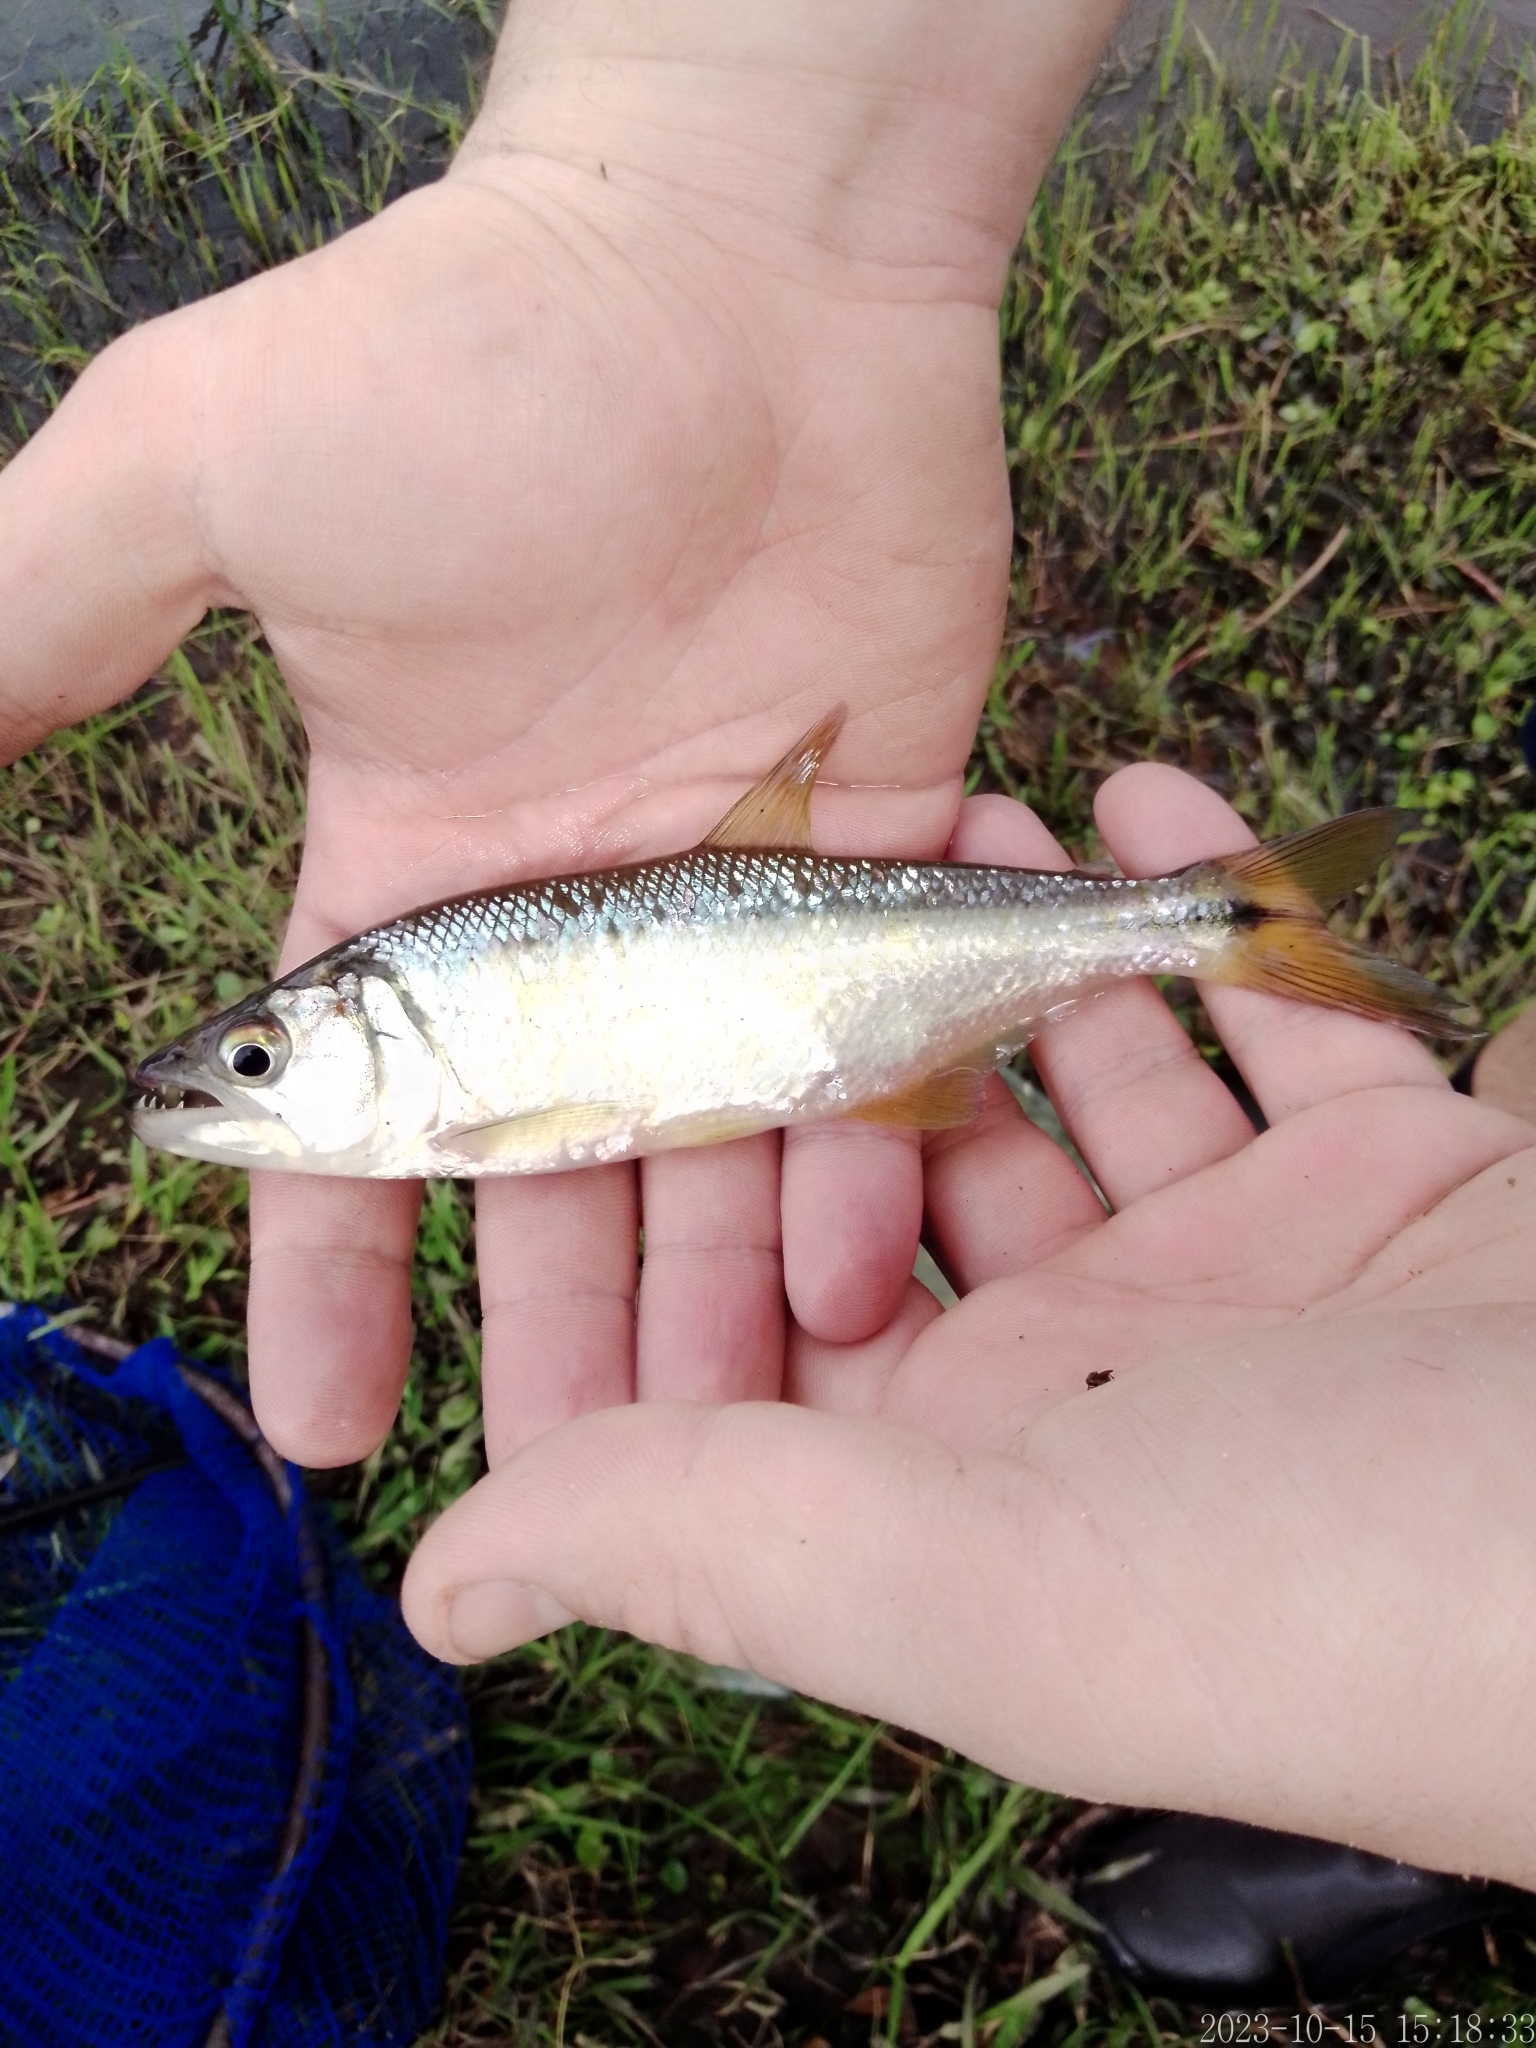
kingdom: Animalia
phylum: Chordata
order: Characiformes
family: Characidae
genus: Oligosarcus
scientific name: Oligosarcus oligolepis
